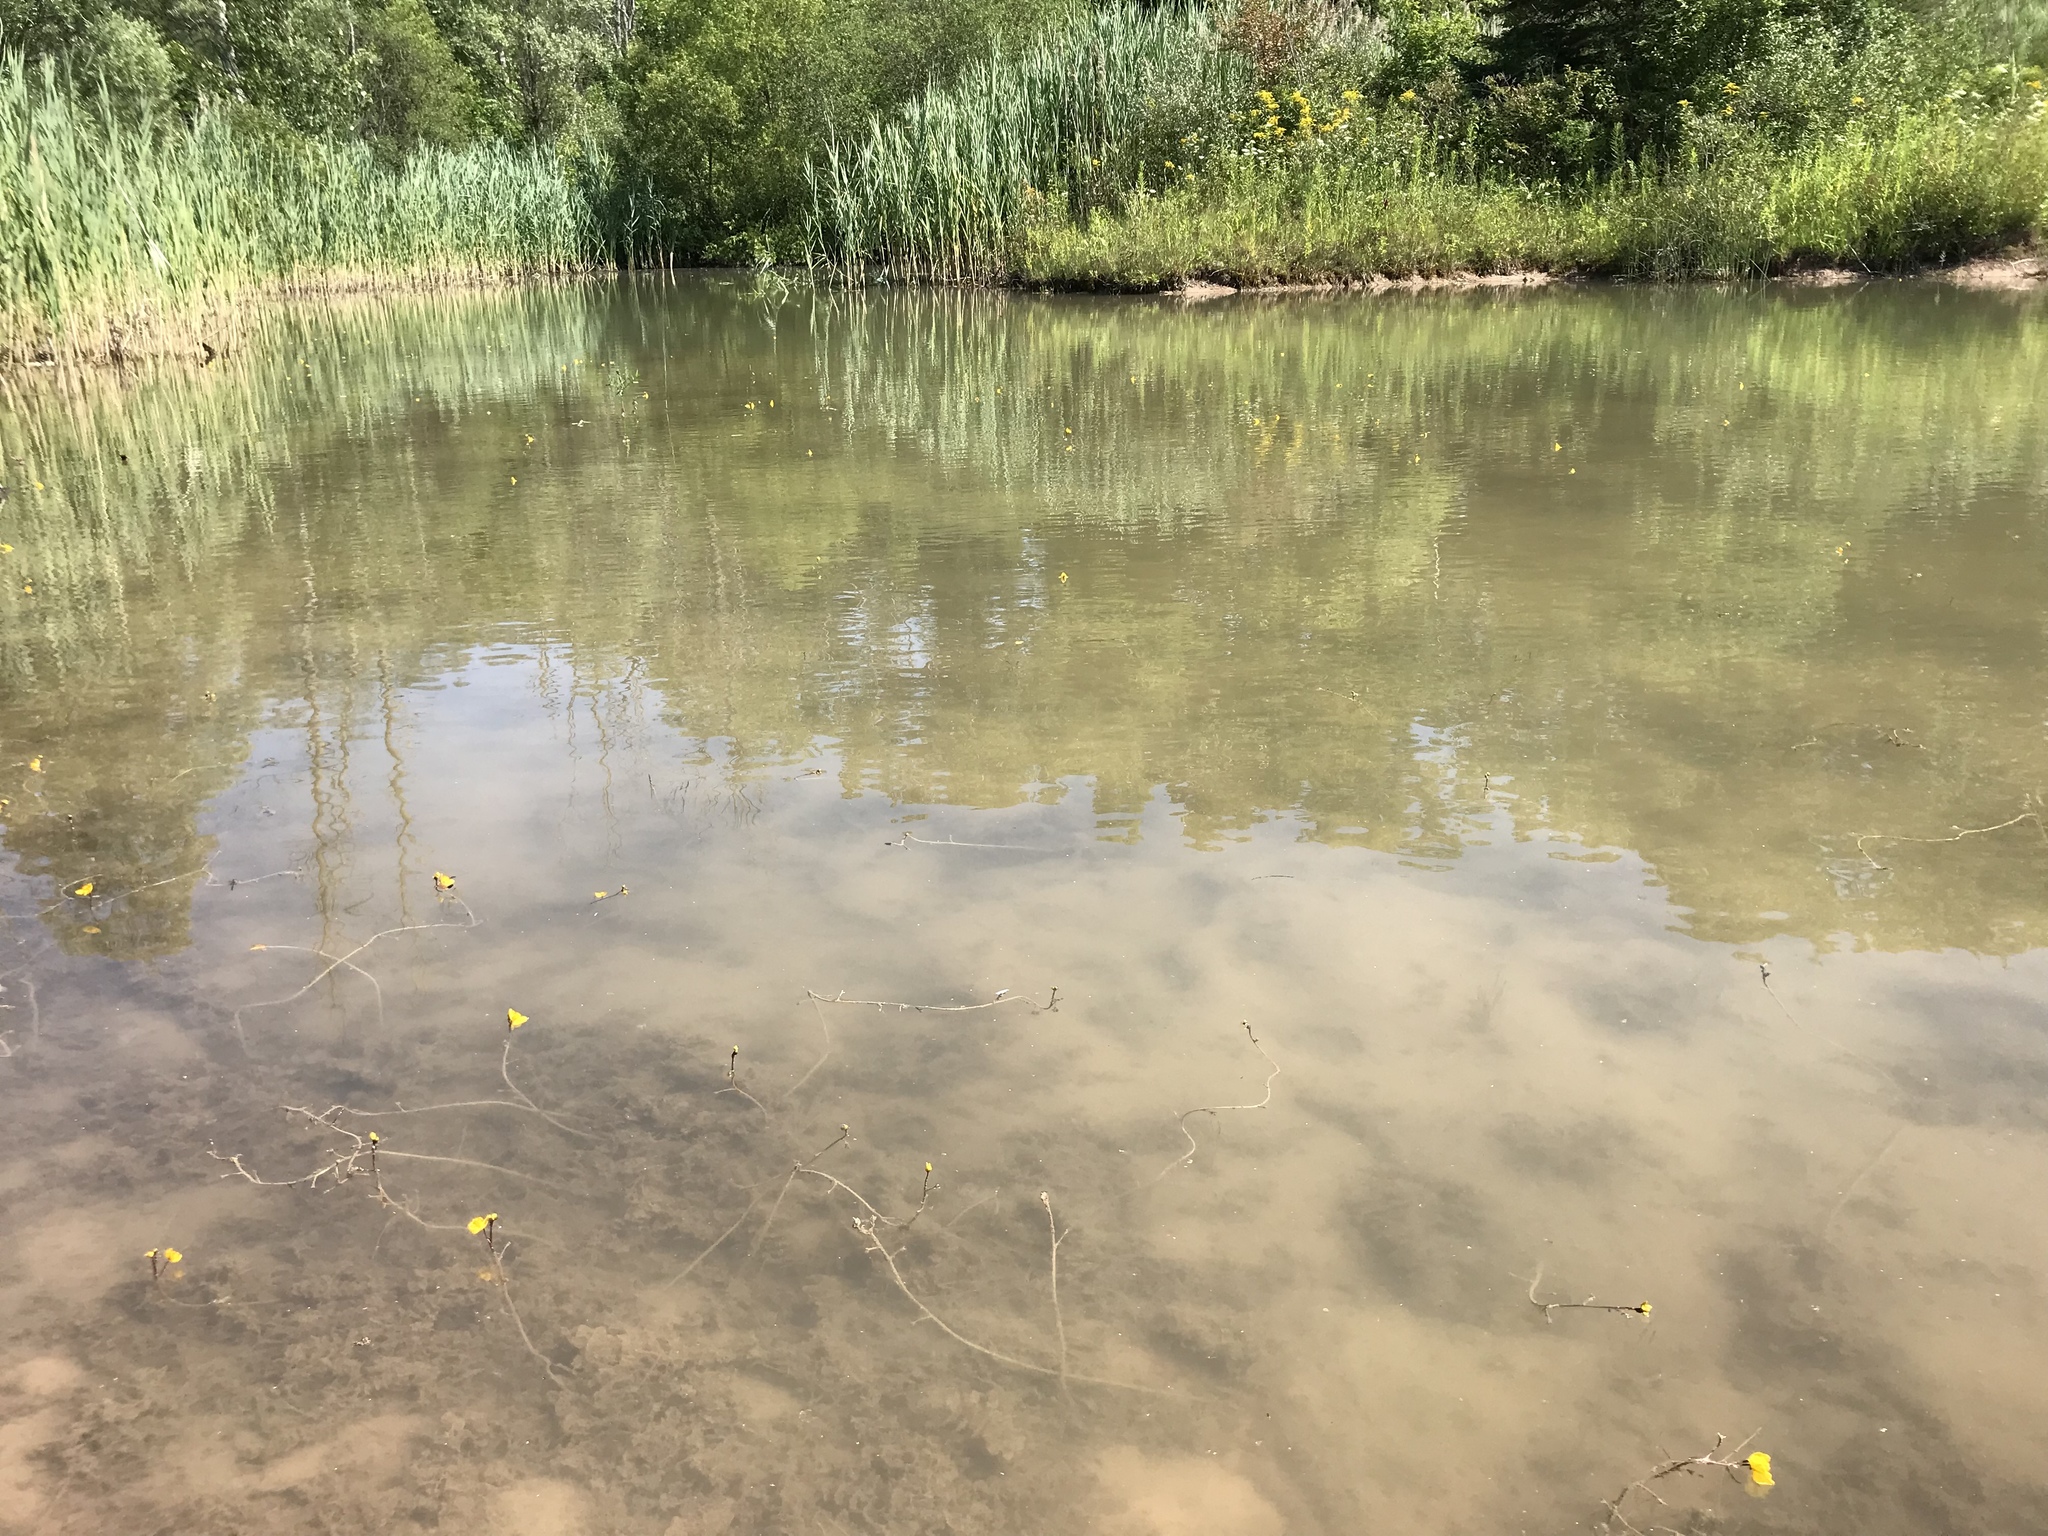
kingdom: Plantae
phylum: Tracheophyta
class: Magnoliopsida
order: Lamiales
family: Lentibulariaceae
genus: Utricularia
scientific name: Utricularia macrorhiza
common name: Common bladderwort
